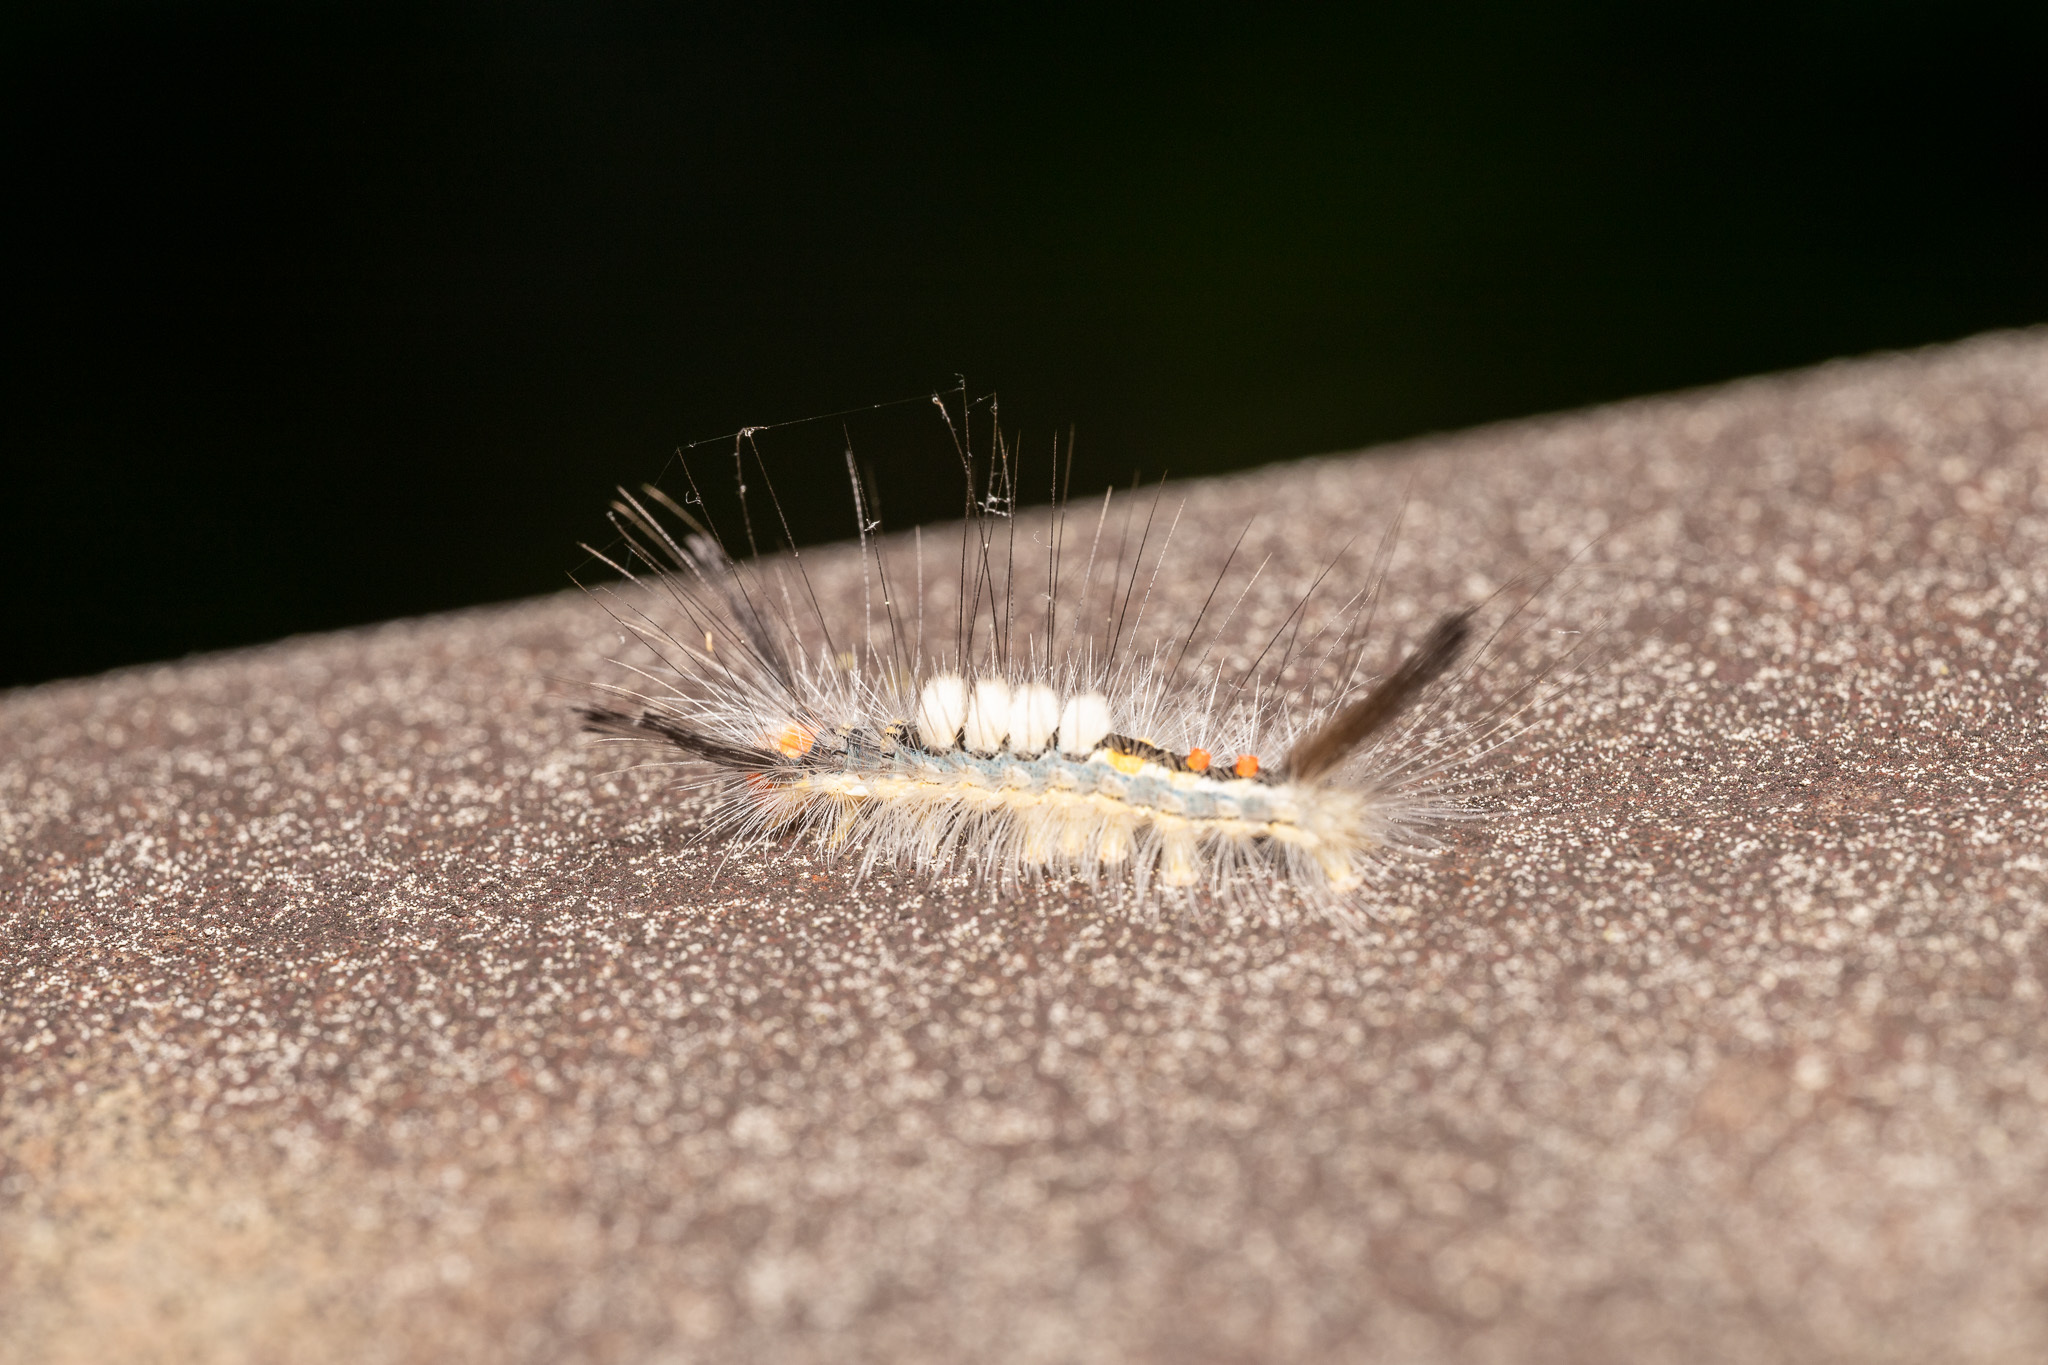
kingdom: Animalia
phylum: Arthropoda
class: Insecta
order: Lepidoptera
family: Erebidae
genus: Orgyia
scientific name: Orgyia leucostigma
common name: White-marked tussock moth
